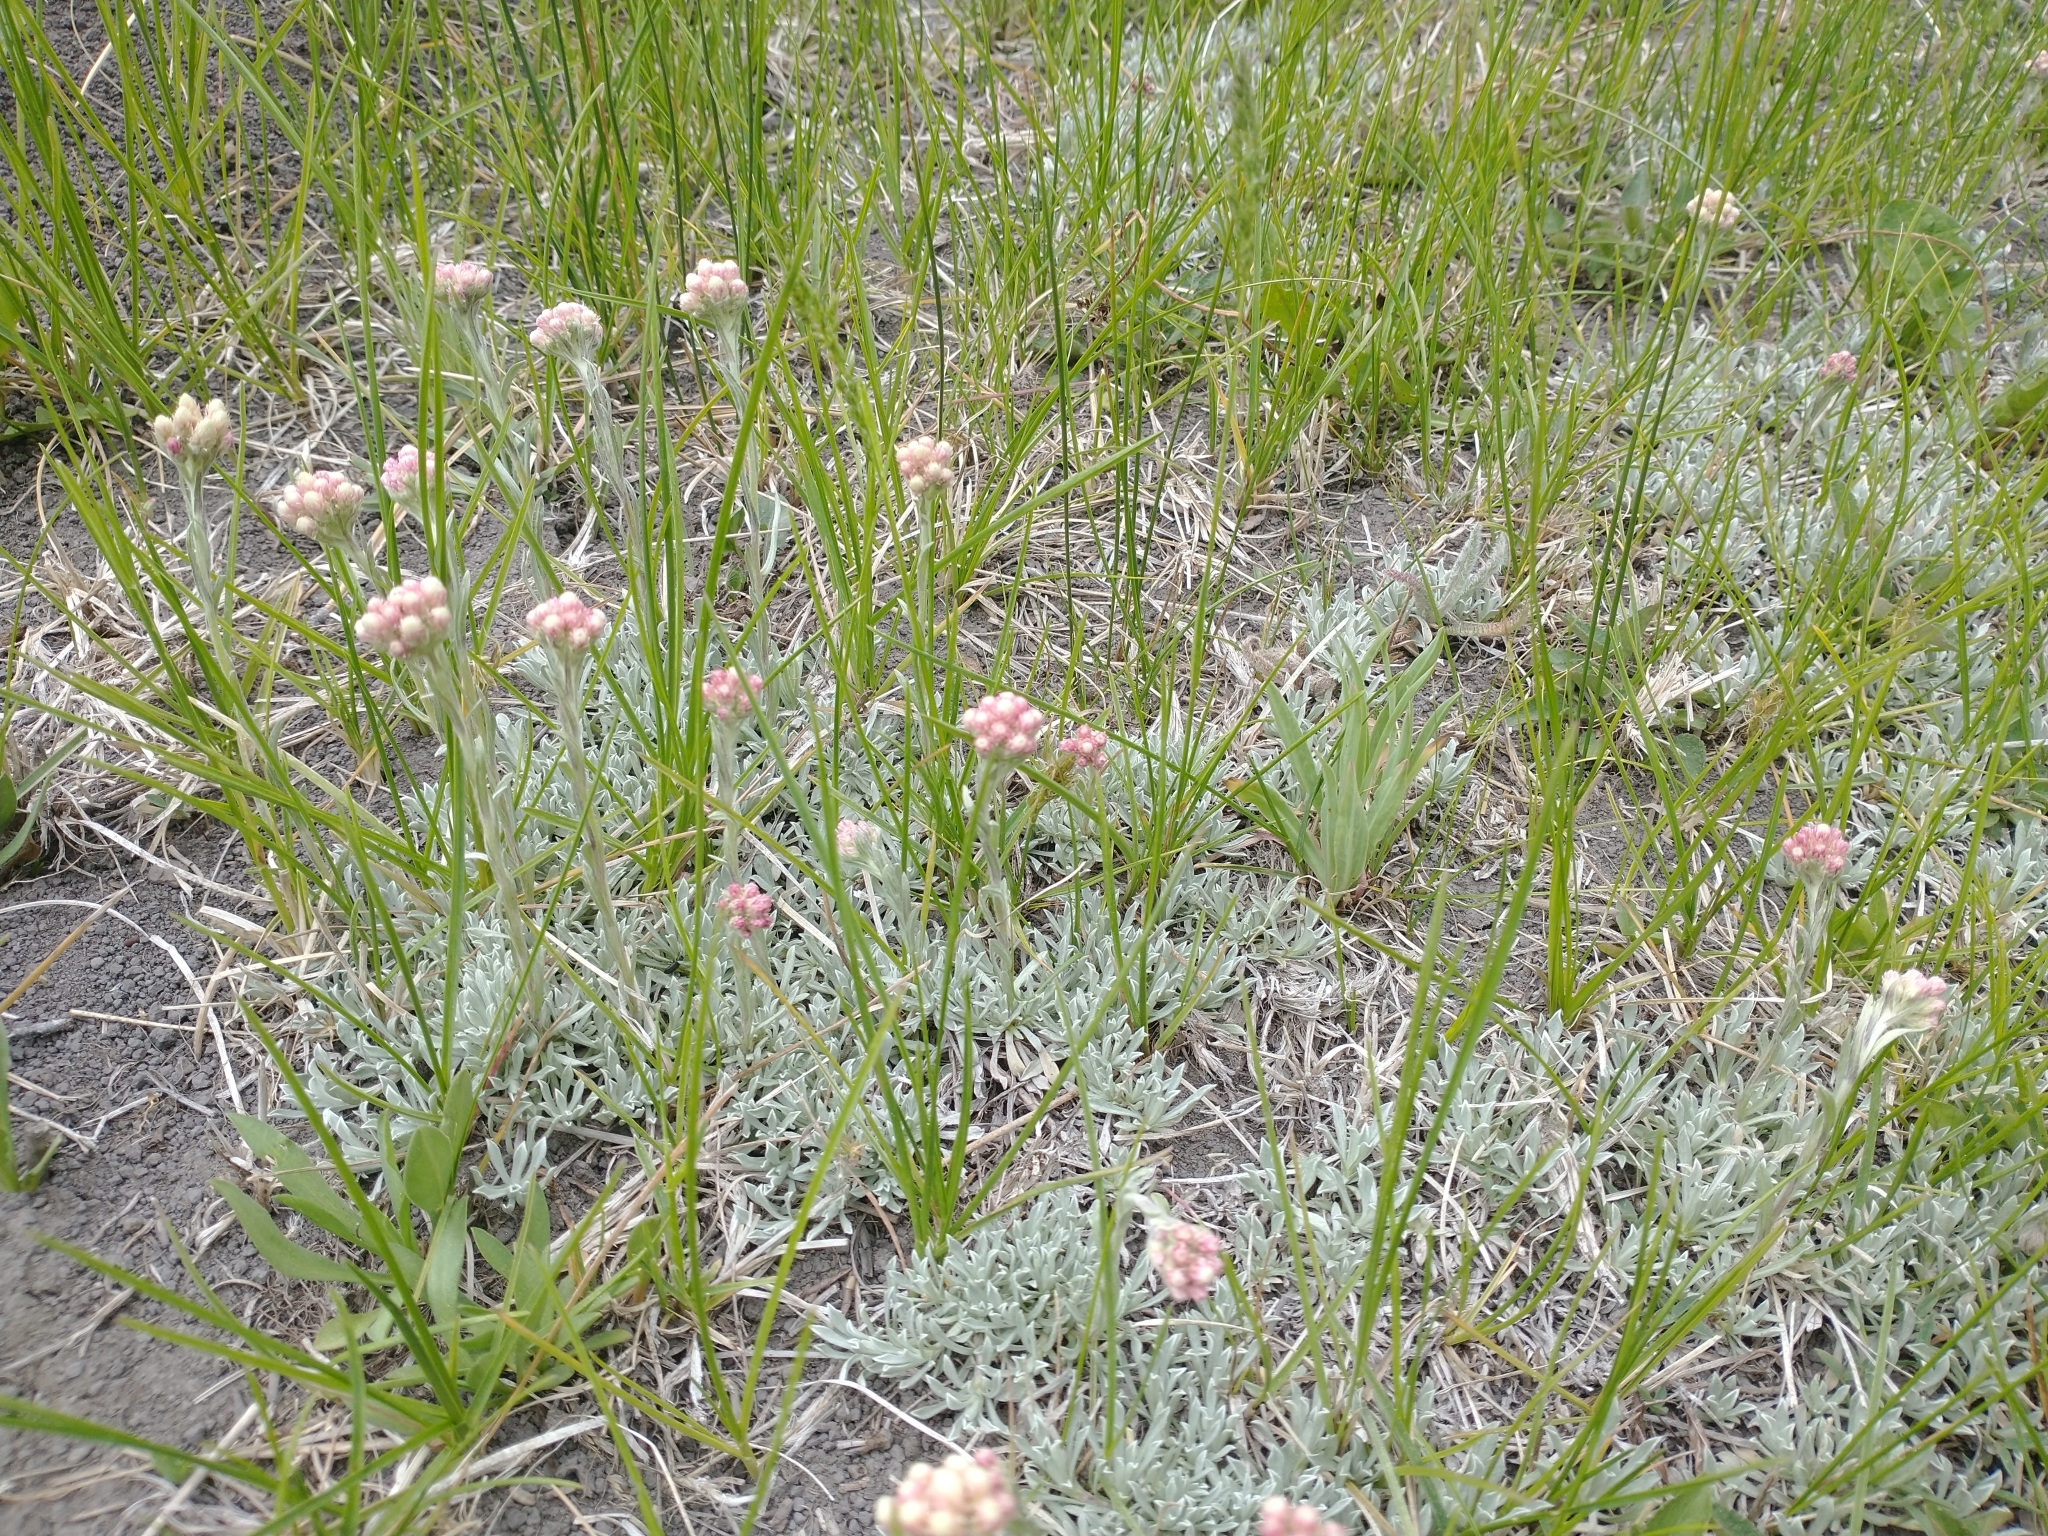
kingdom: Plantae
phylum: Tracheophyta
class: Magnoliopsida
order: Asterales
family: Asteraceae
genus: Antennaria
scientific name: Antennaria rosea
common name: Rosy pussytoes
